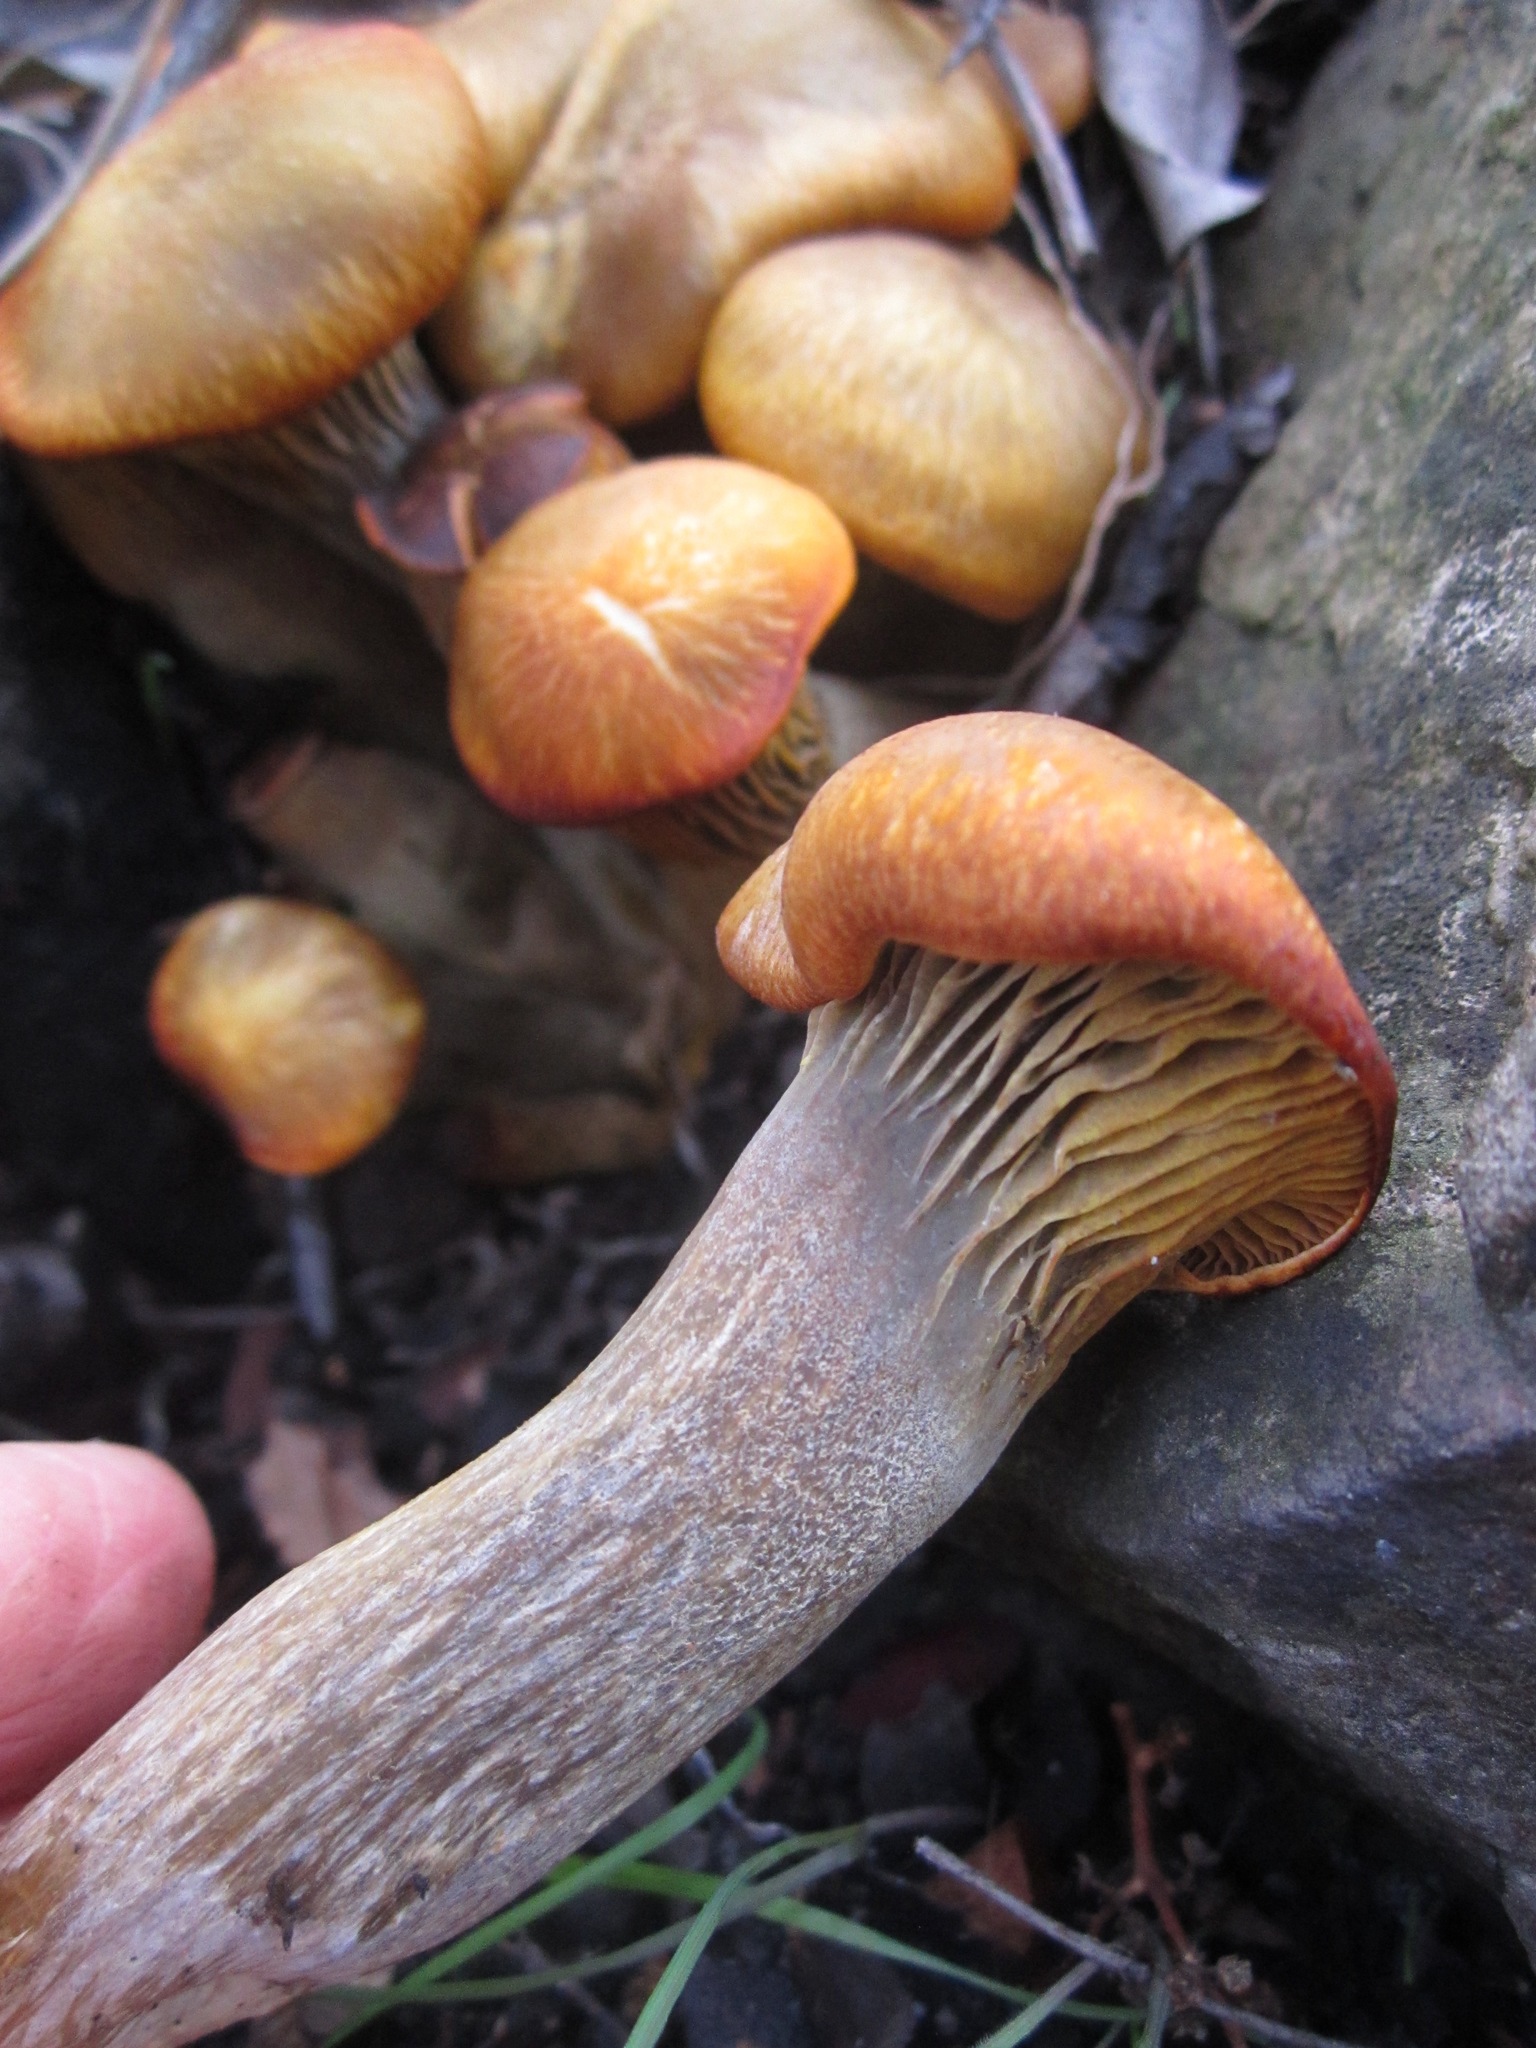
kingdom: Fungi
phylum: Basidiomycota
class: Agaricomycetes
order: Agaricales
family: Omphalotaceae
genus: Omphalotus
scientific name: Omphalotus olivascens
